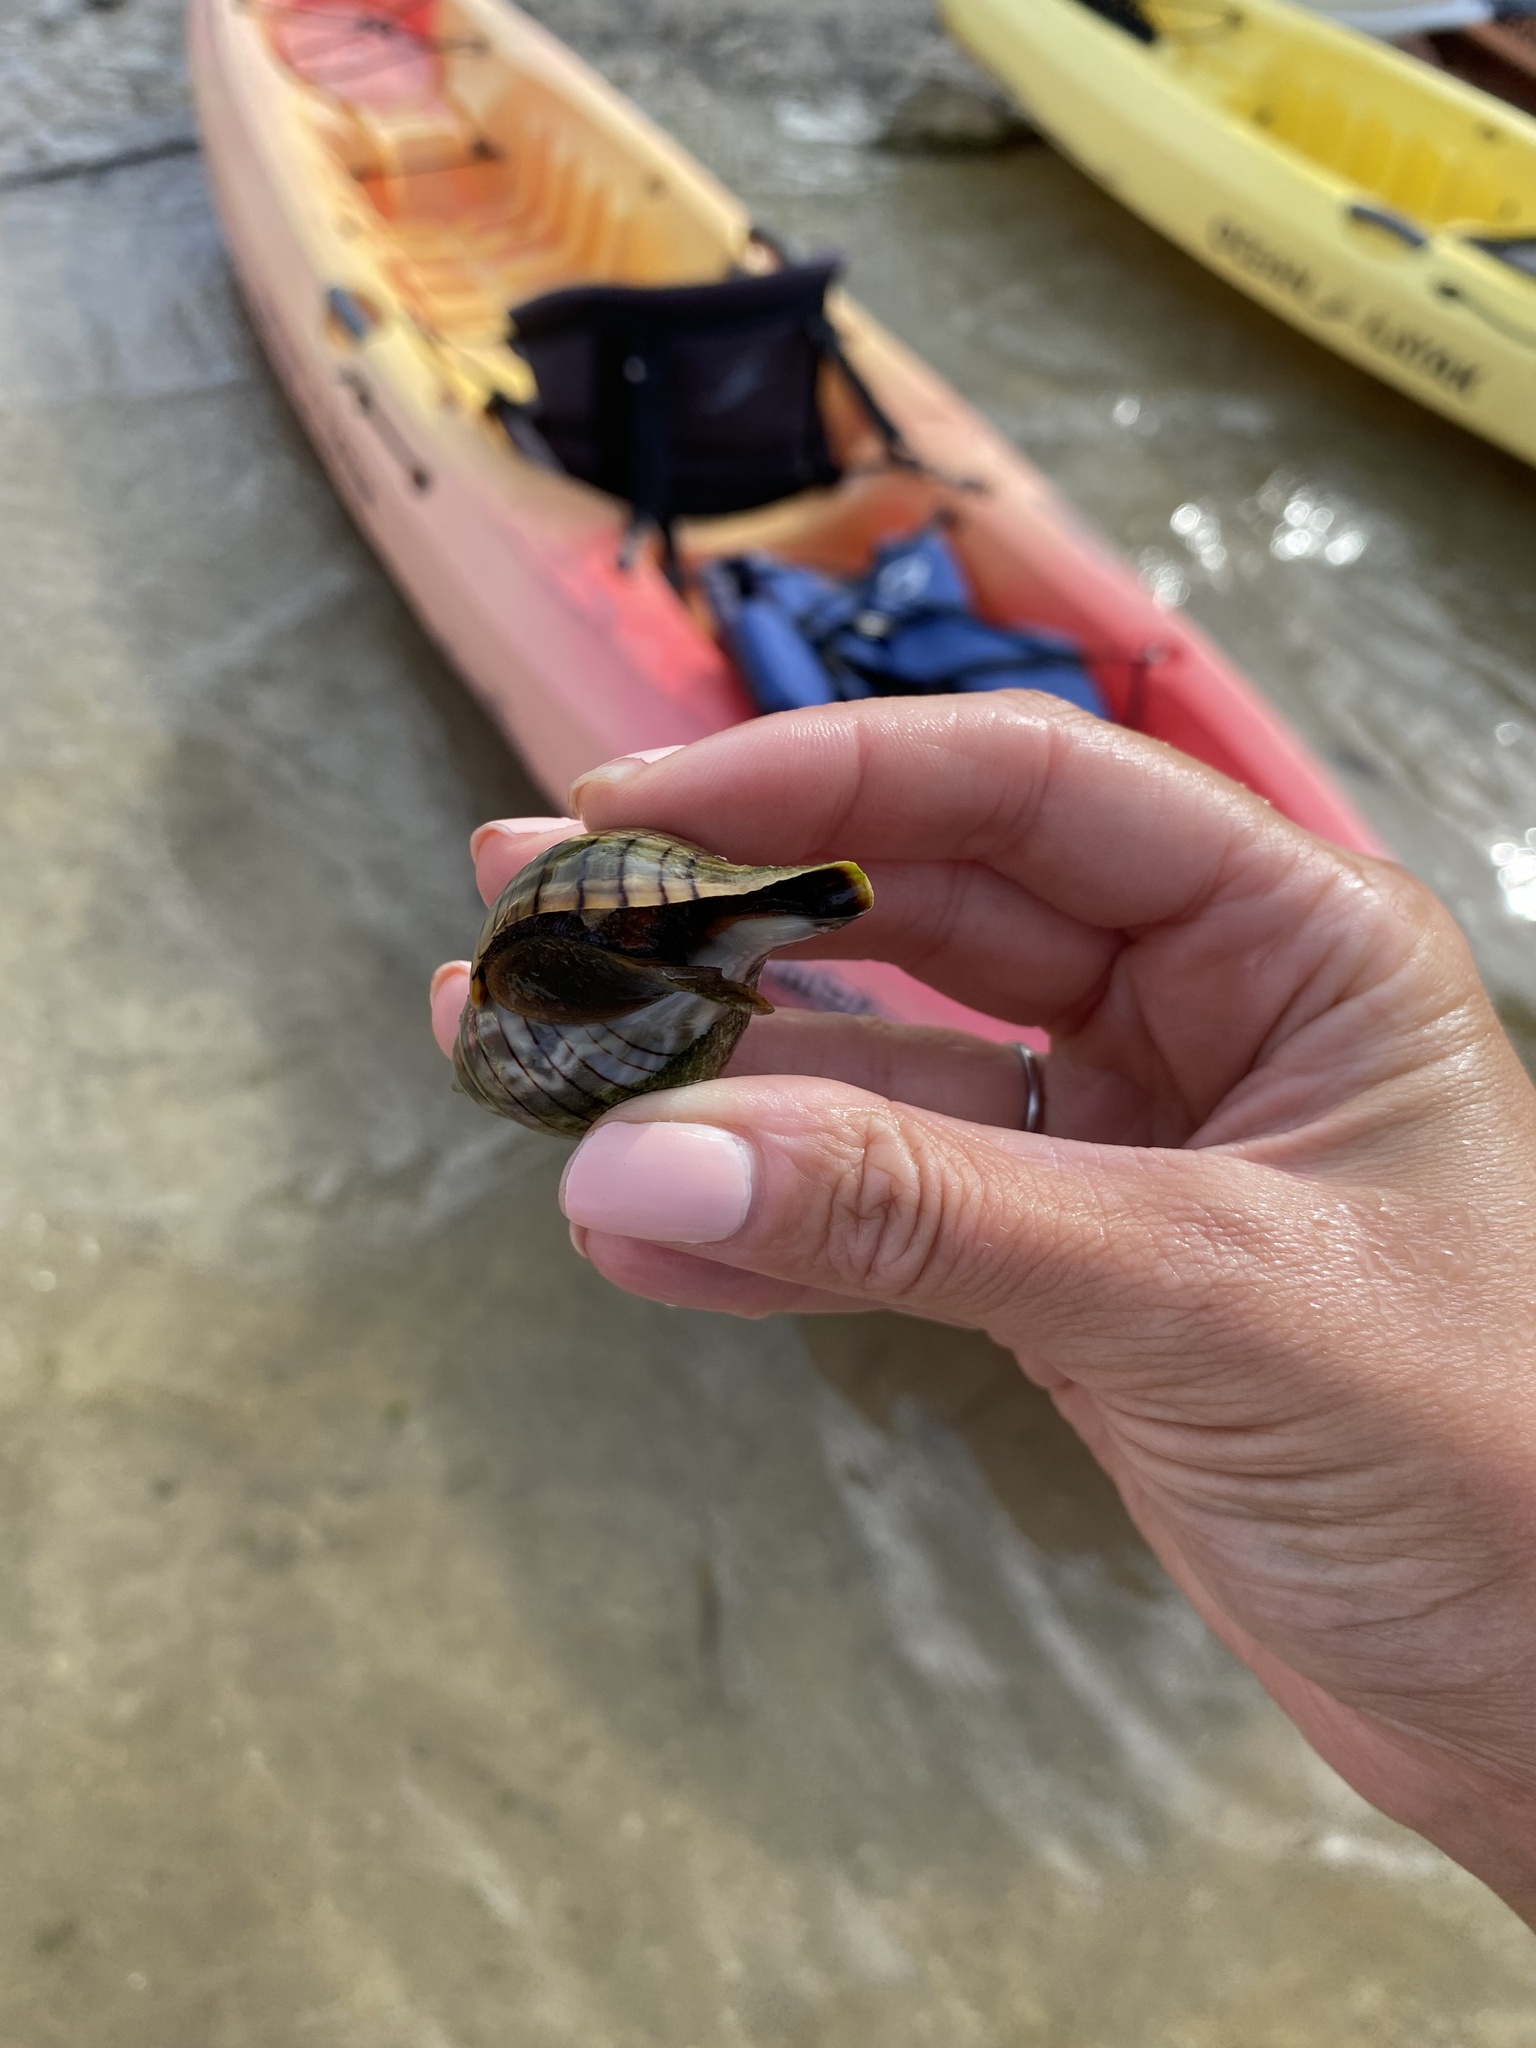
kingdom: Animalia
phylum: Mollusca
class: Gastropoda
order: Neogastropoda
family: Fasciolariidae
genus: Cinctura
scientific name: Cinctura hunteria
